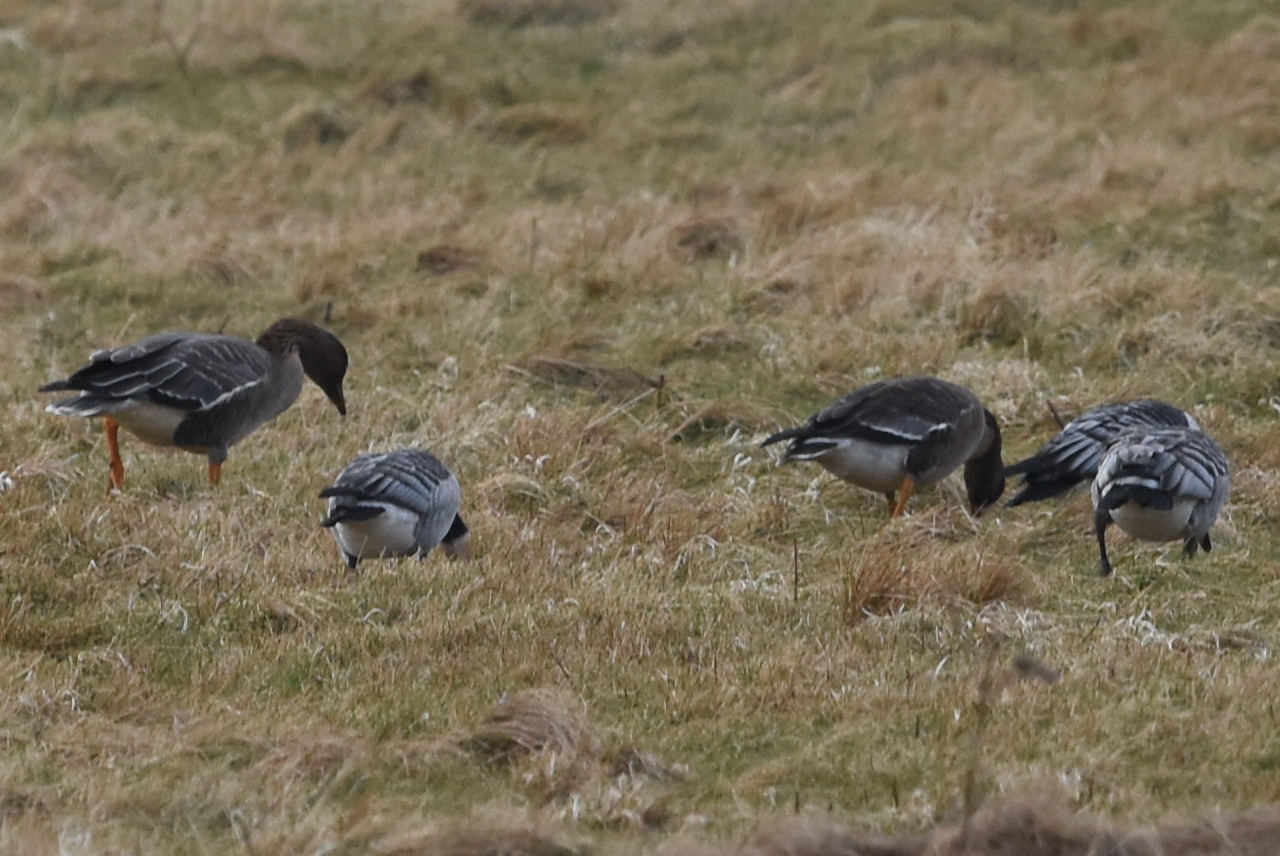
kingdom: Animalia
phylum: Chordata
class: Aves
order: Anseriformes
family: Anatidae
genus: Anser
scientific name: Anser fabalis
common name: Bean goose
